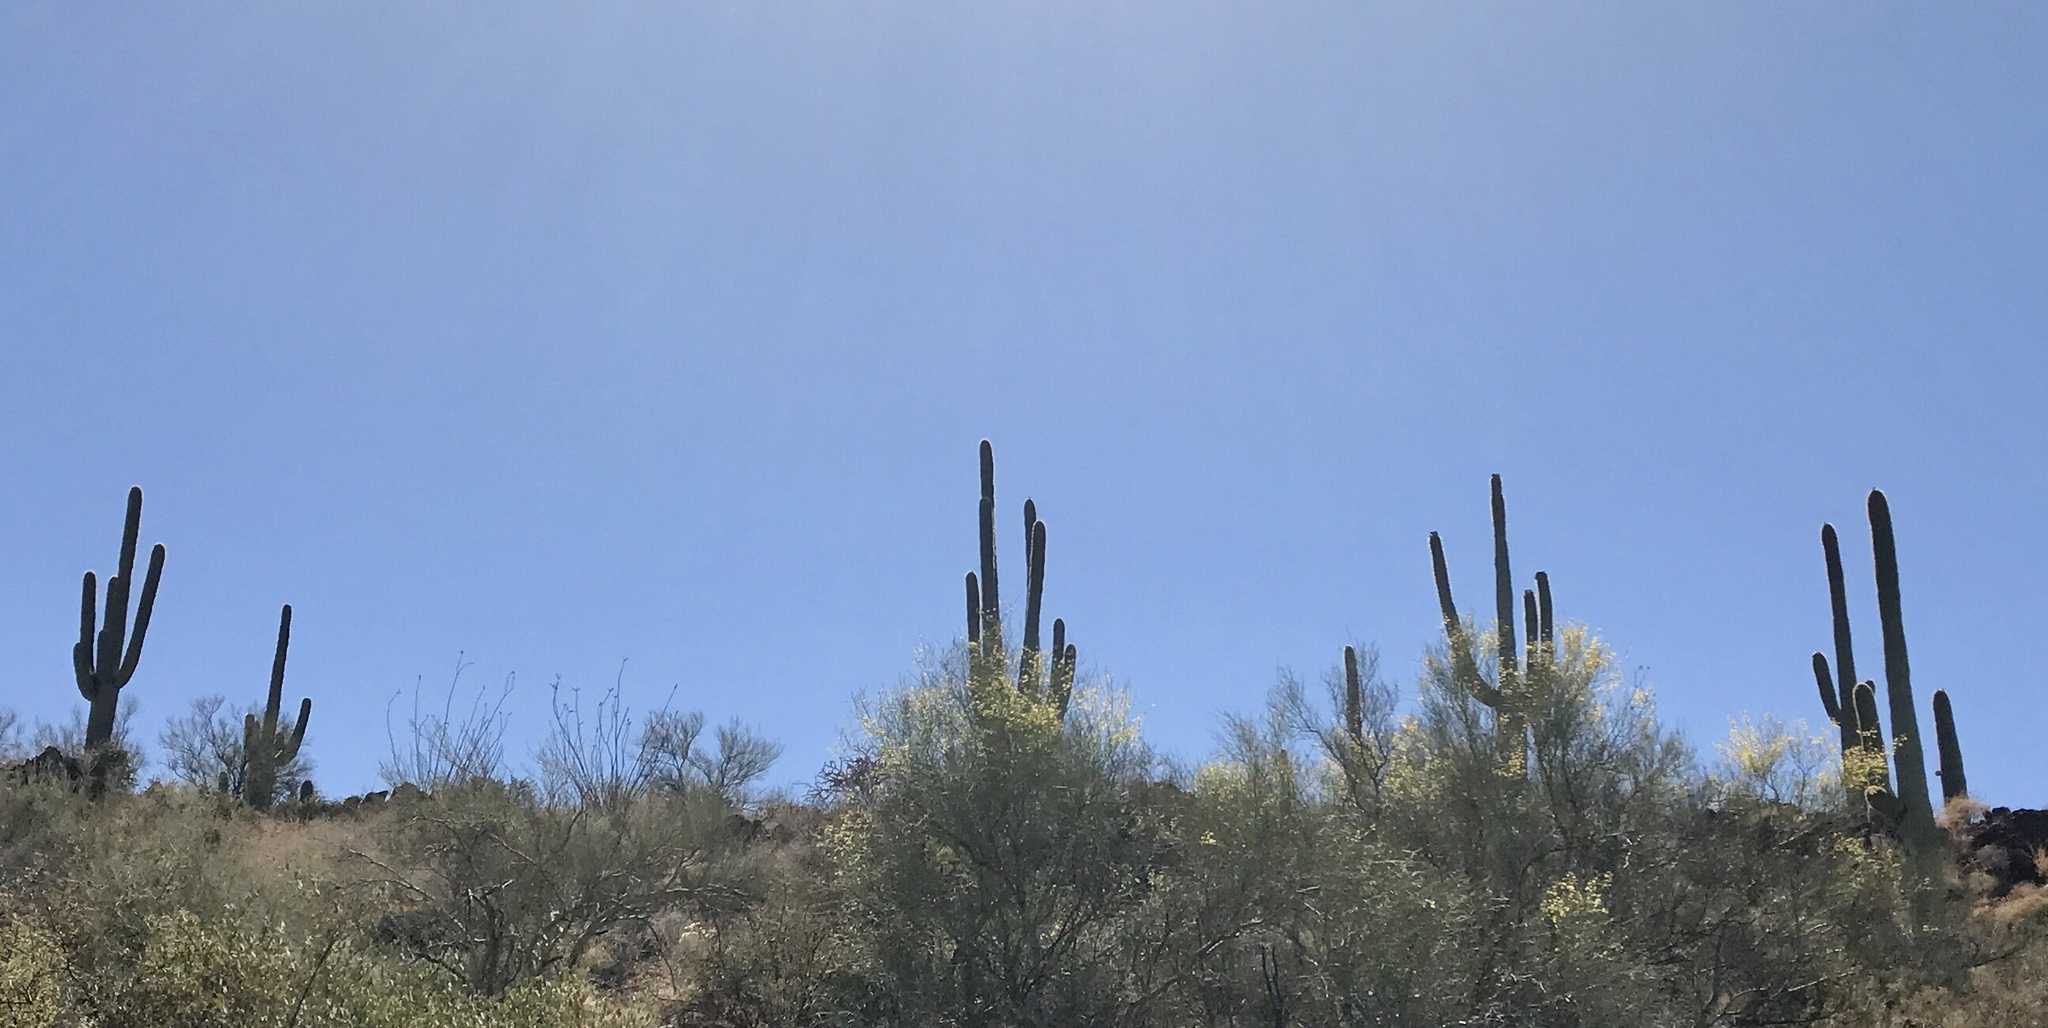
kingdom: Plantae
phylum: Tracheophyta
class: Magnoliopsida
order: Caryophyllales
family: Cactaceae
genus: Carnegiea
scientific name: Carnegiea gigantea
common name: Saguaro
